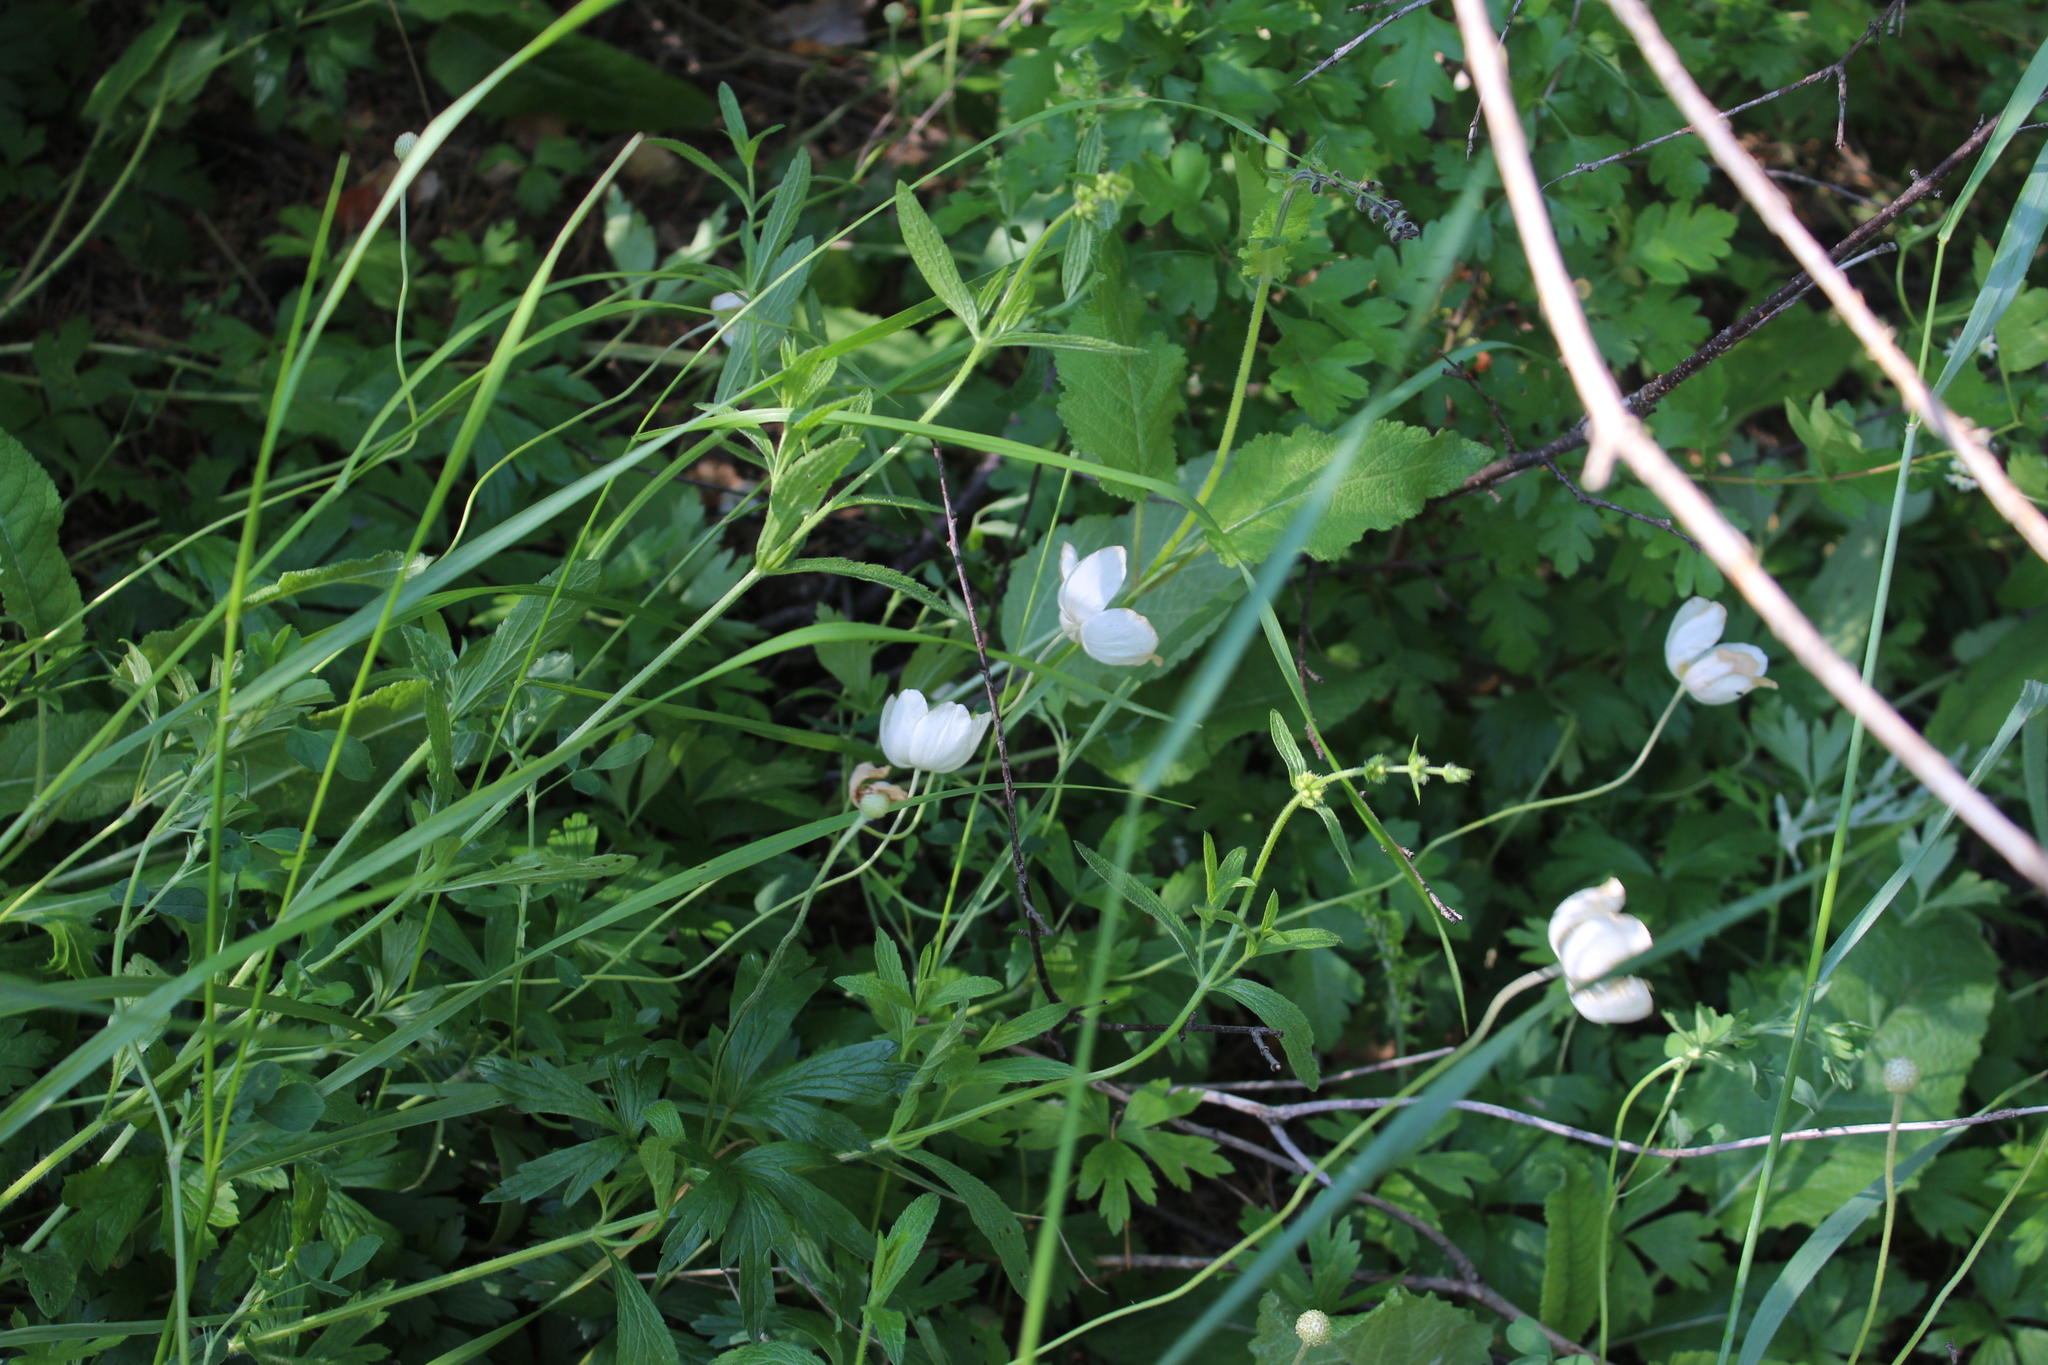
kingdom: Plantae
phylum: Tracheophyta
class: Magnoliopsida
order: Ranunculales
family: Ranunculaceae
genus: Anemone
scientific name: Anemone sylvestris
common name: Snowdrop anemone
